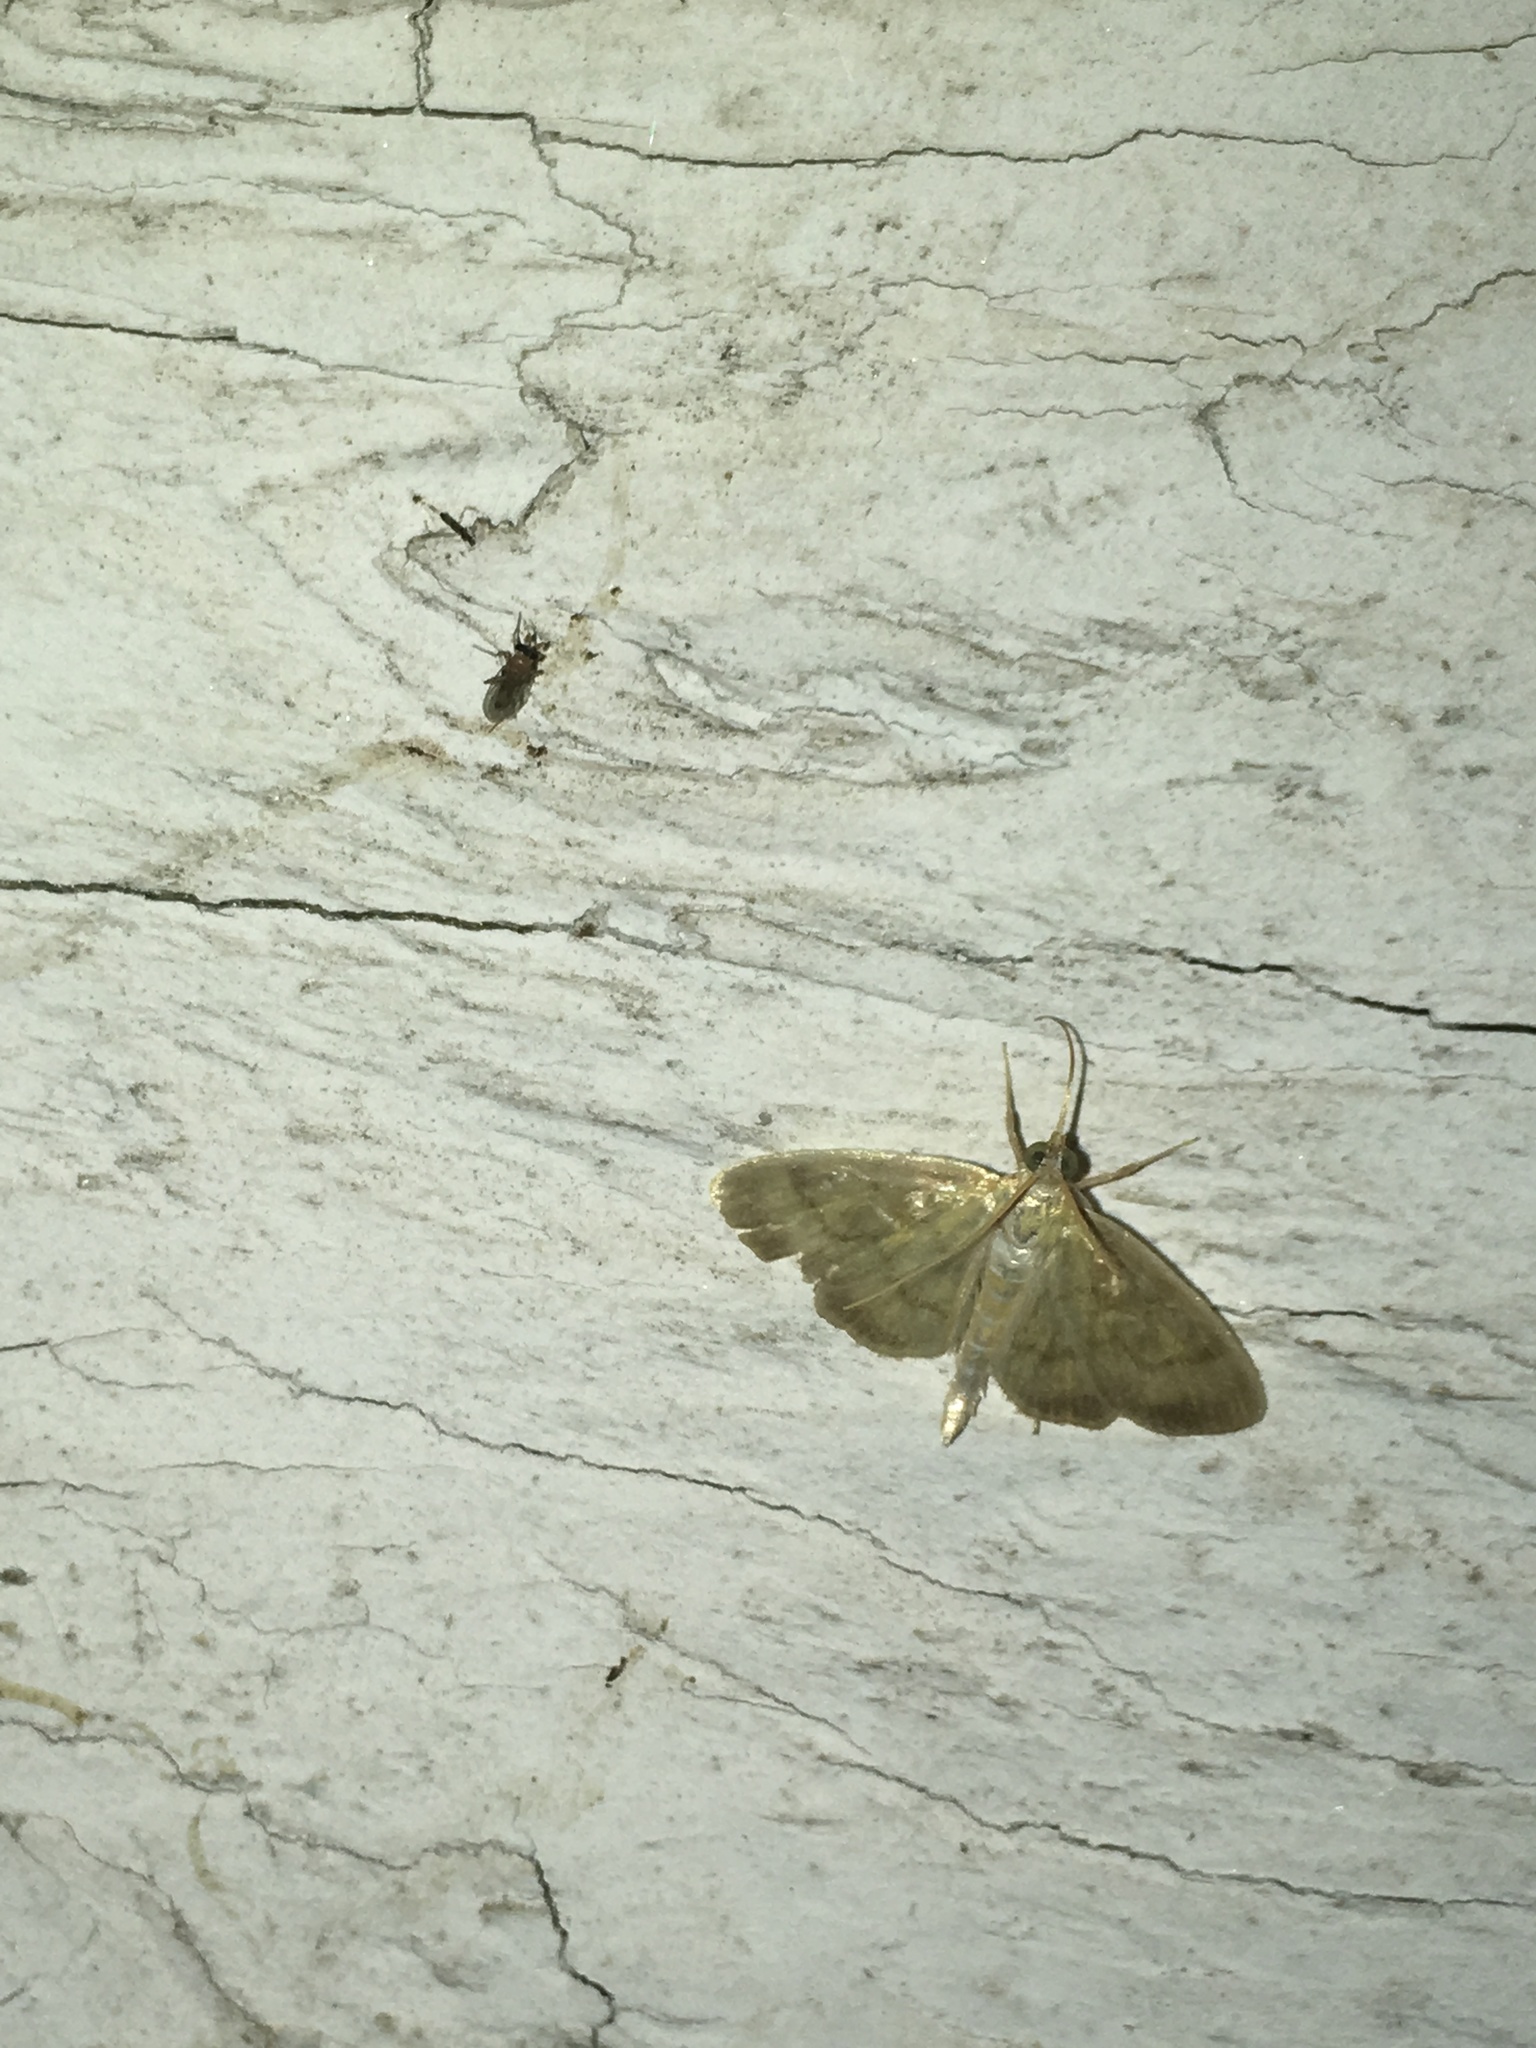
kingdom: Animalia
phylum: Arthropoda
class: Insecta
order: Lepidoptera
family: Crambidae
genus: Crocidophora
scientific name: Crocidophora tuberculalis
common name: Pale-winged crocidiphora moth
